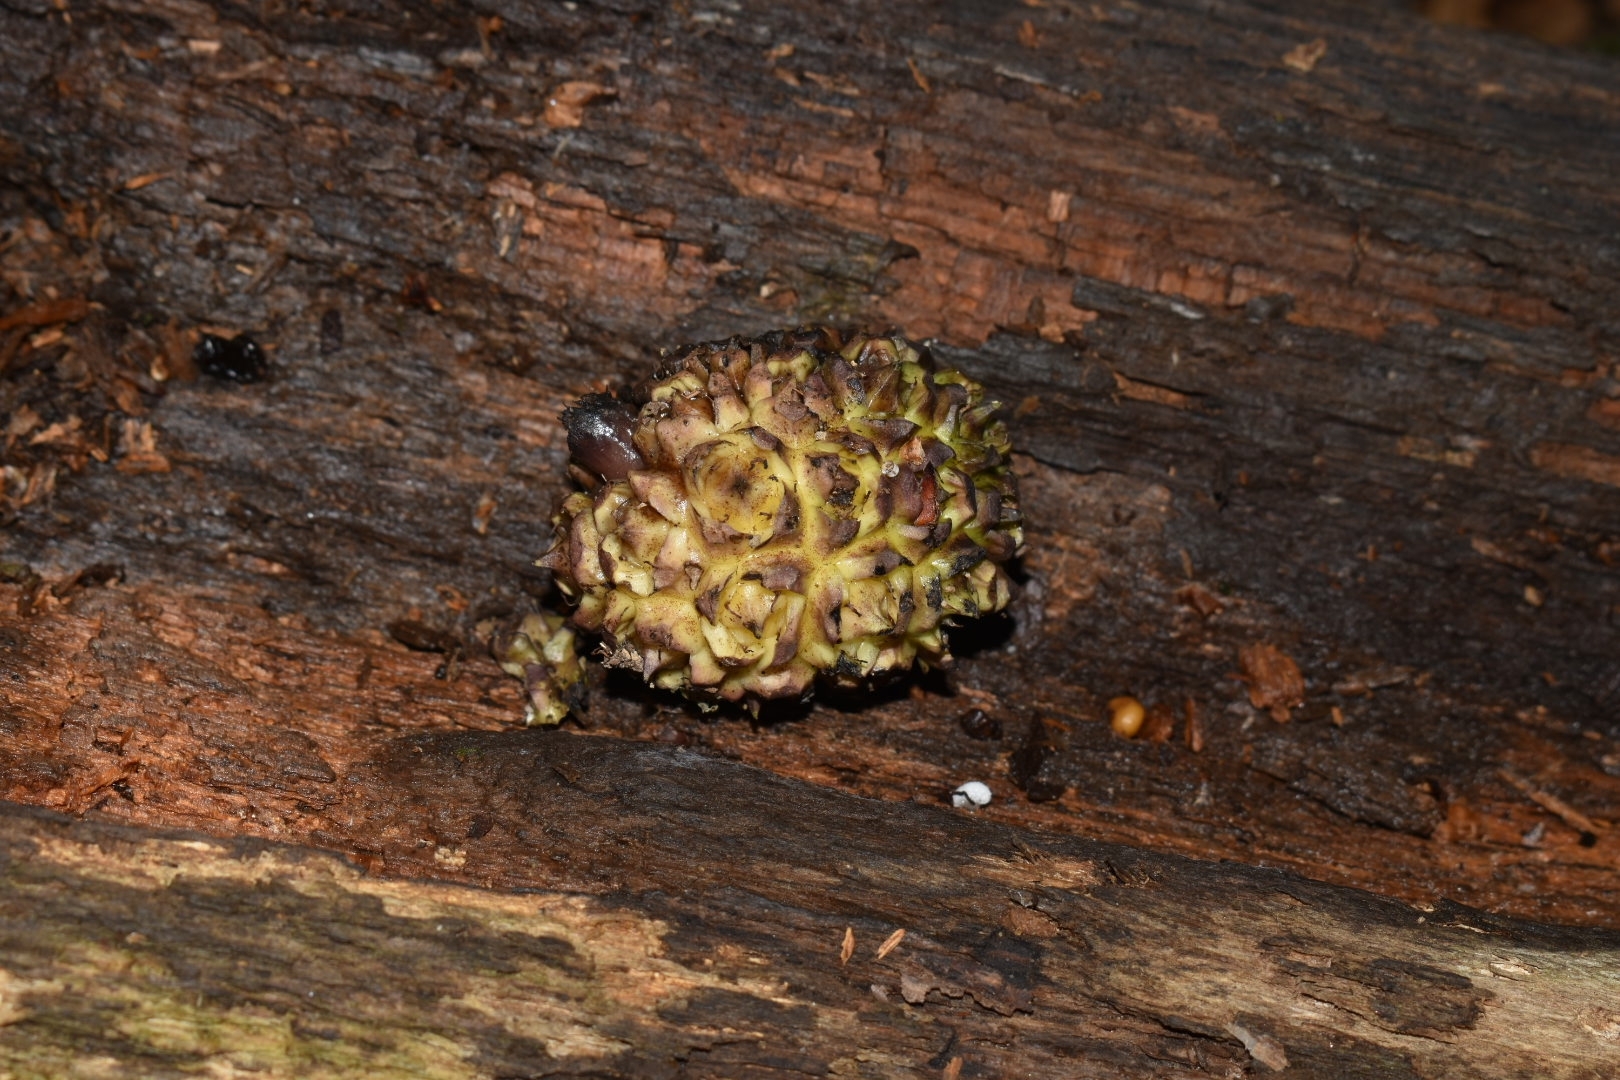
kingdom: Plantae
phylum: Tracheophyta
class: Liliopsida
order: Alismatales
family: Araceae
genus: Symplocarpus
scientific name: Symplocarpus foetidus
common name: Eastern skunk cabbage
